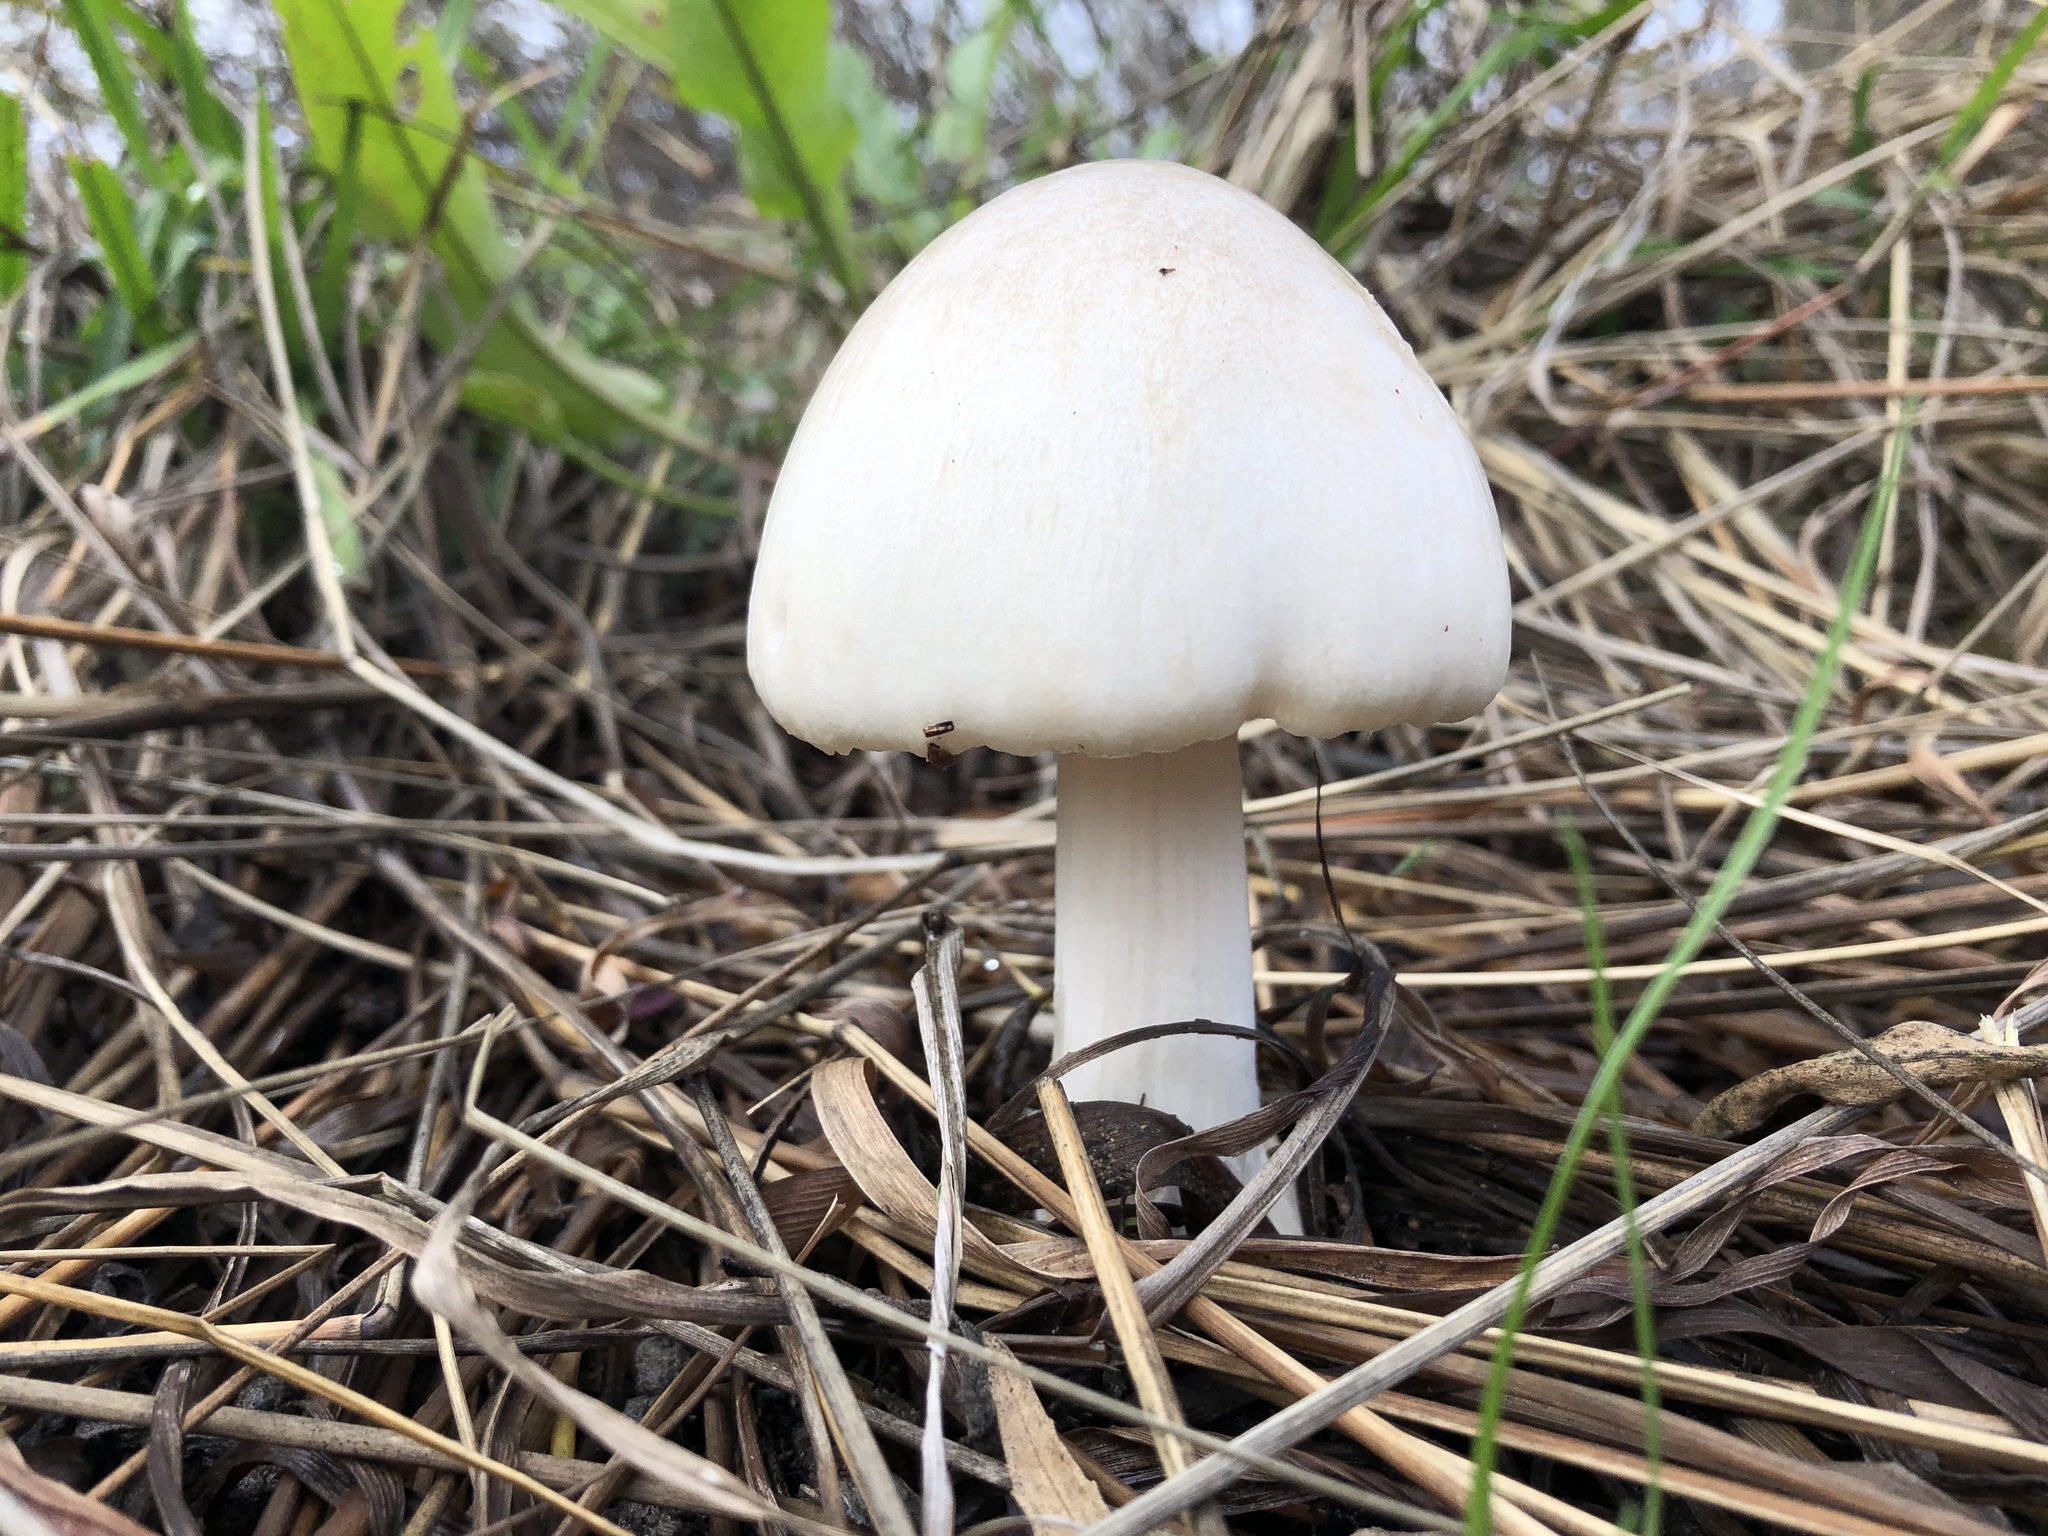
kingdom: Fungi
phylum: Basidiomycota
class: Agaricomycetes
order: Agaricales
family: Pluteaceae
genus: Volvopluteus
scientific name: Volvopluteus gloiocephalus
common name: Stubble rosegill
